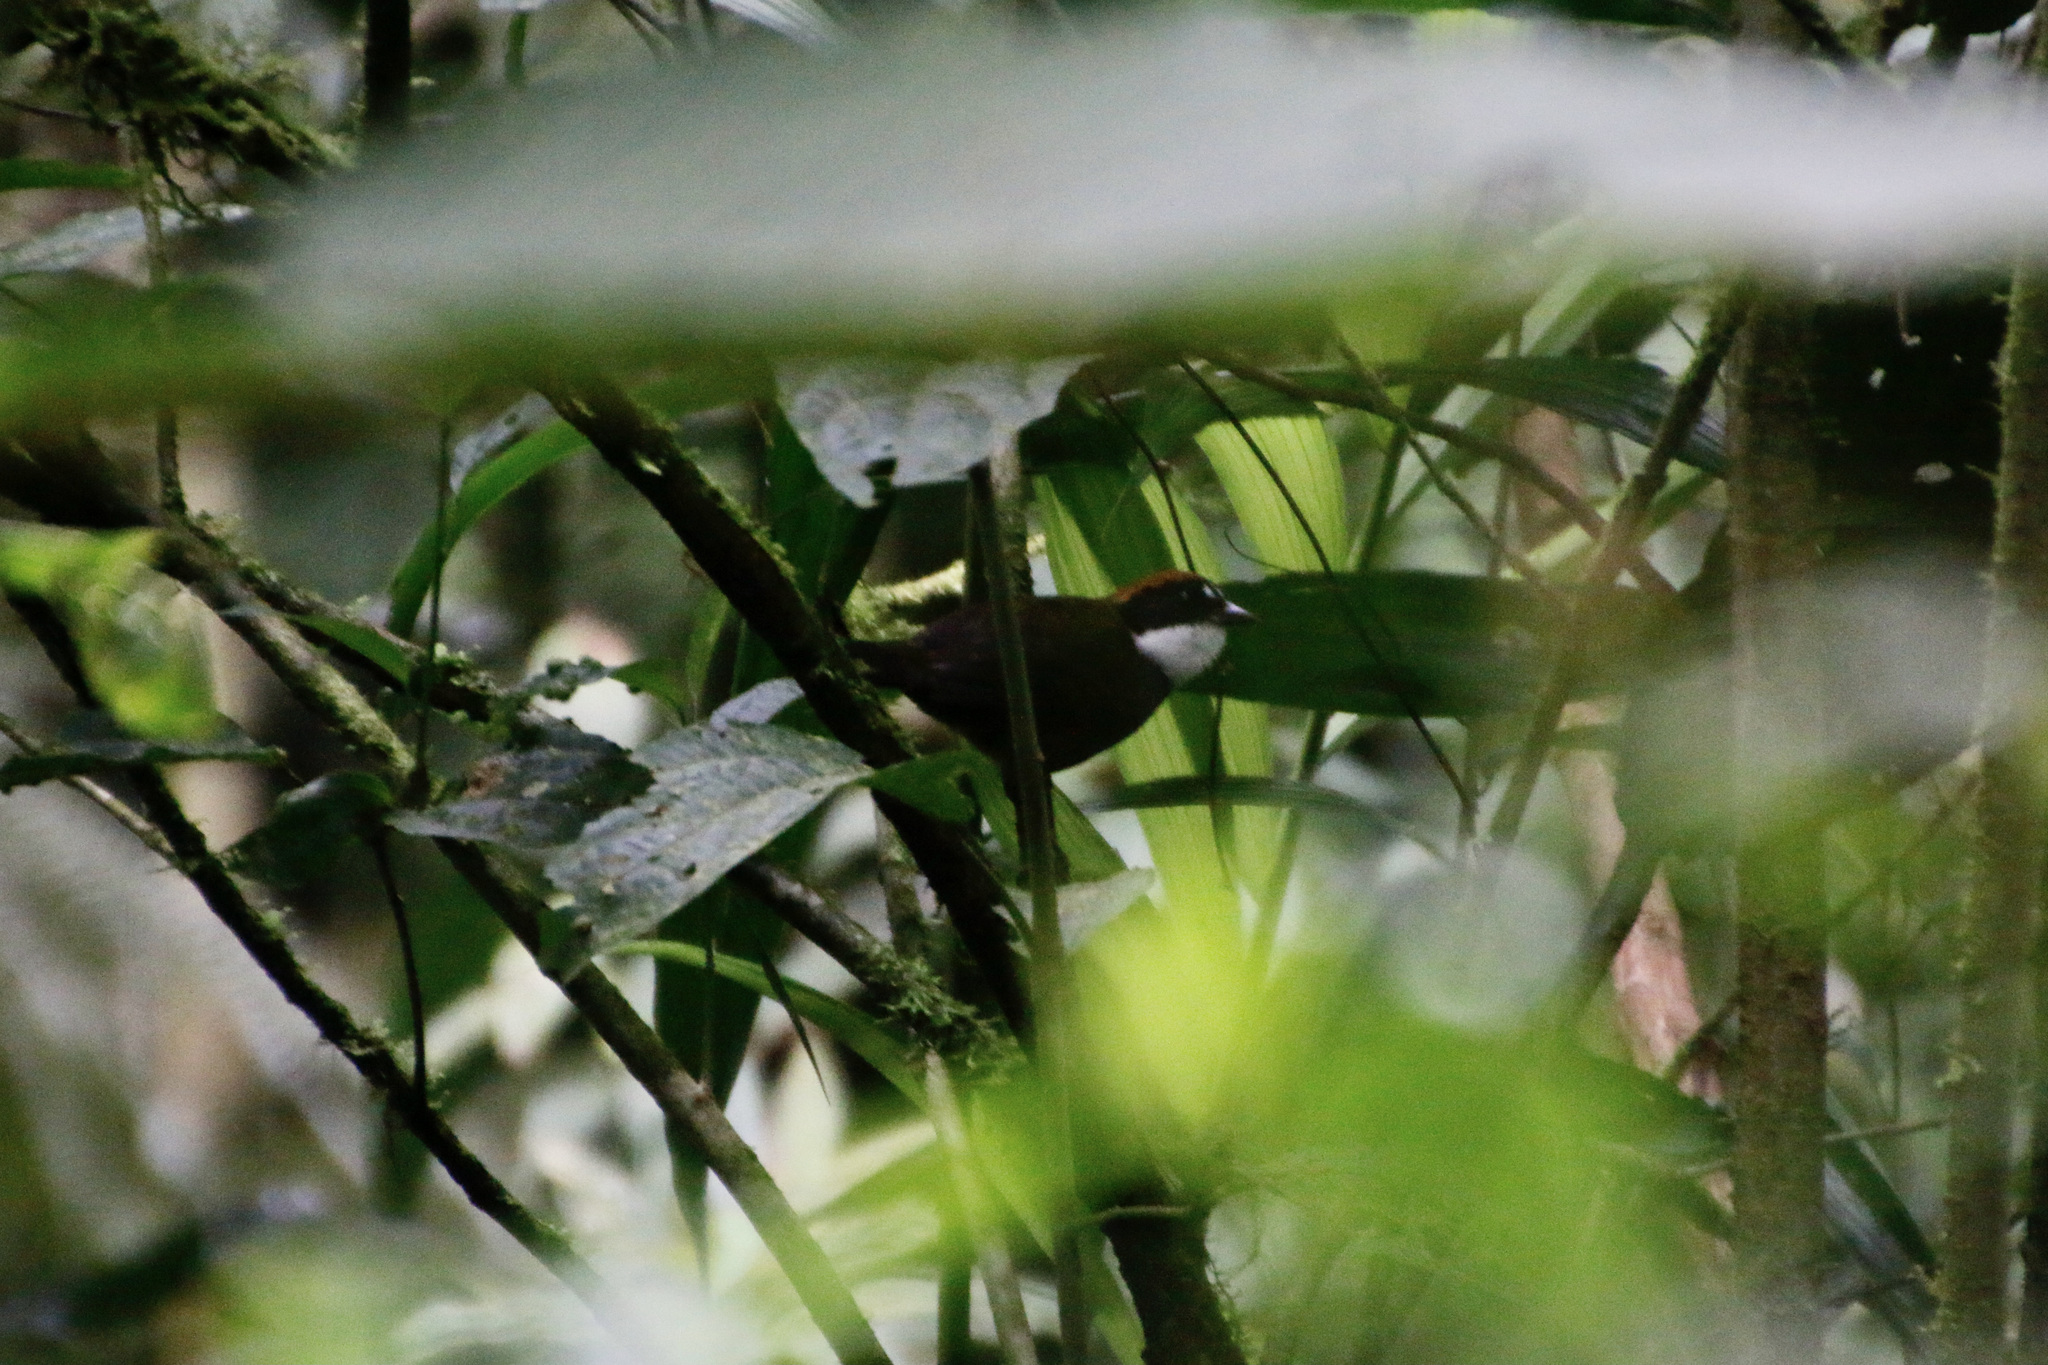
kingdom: Animalia
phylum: Chordata
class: Aves
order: Passeriformes
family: Passerellidae
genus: Arremon
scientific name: Arremon brunneinucha
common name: Chestnut-capped brushfinch
